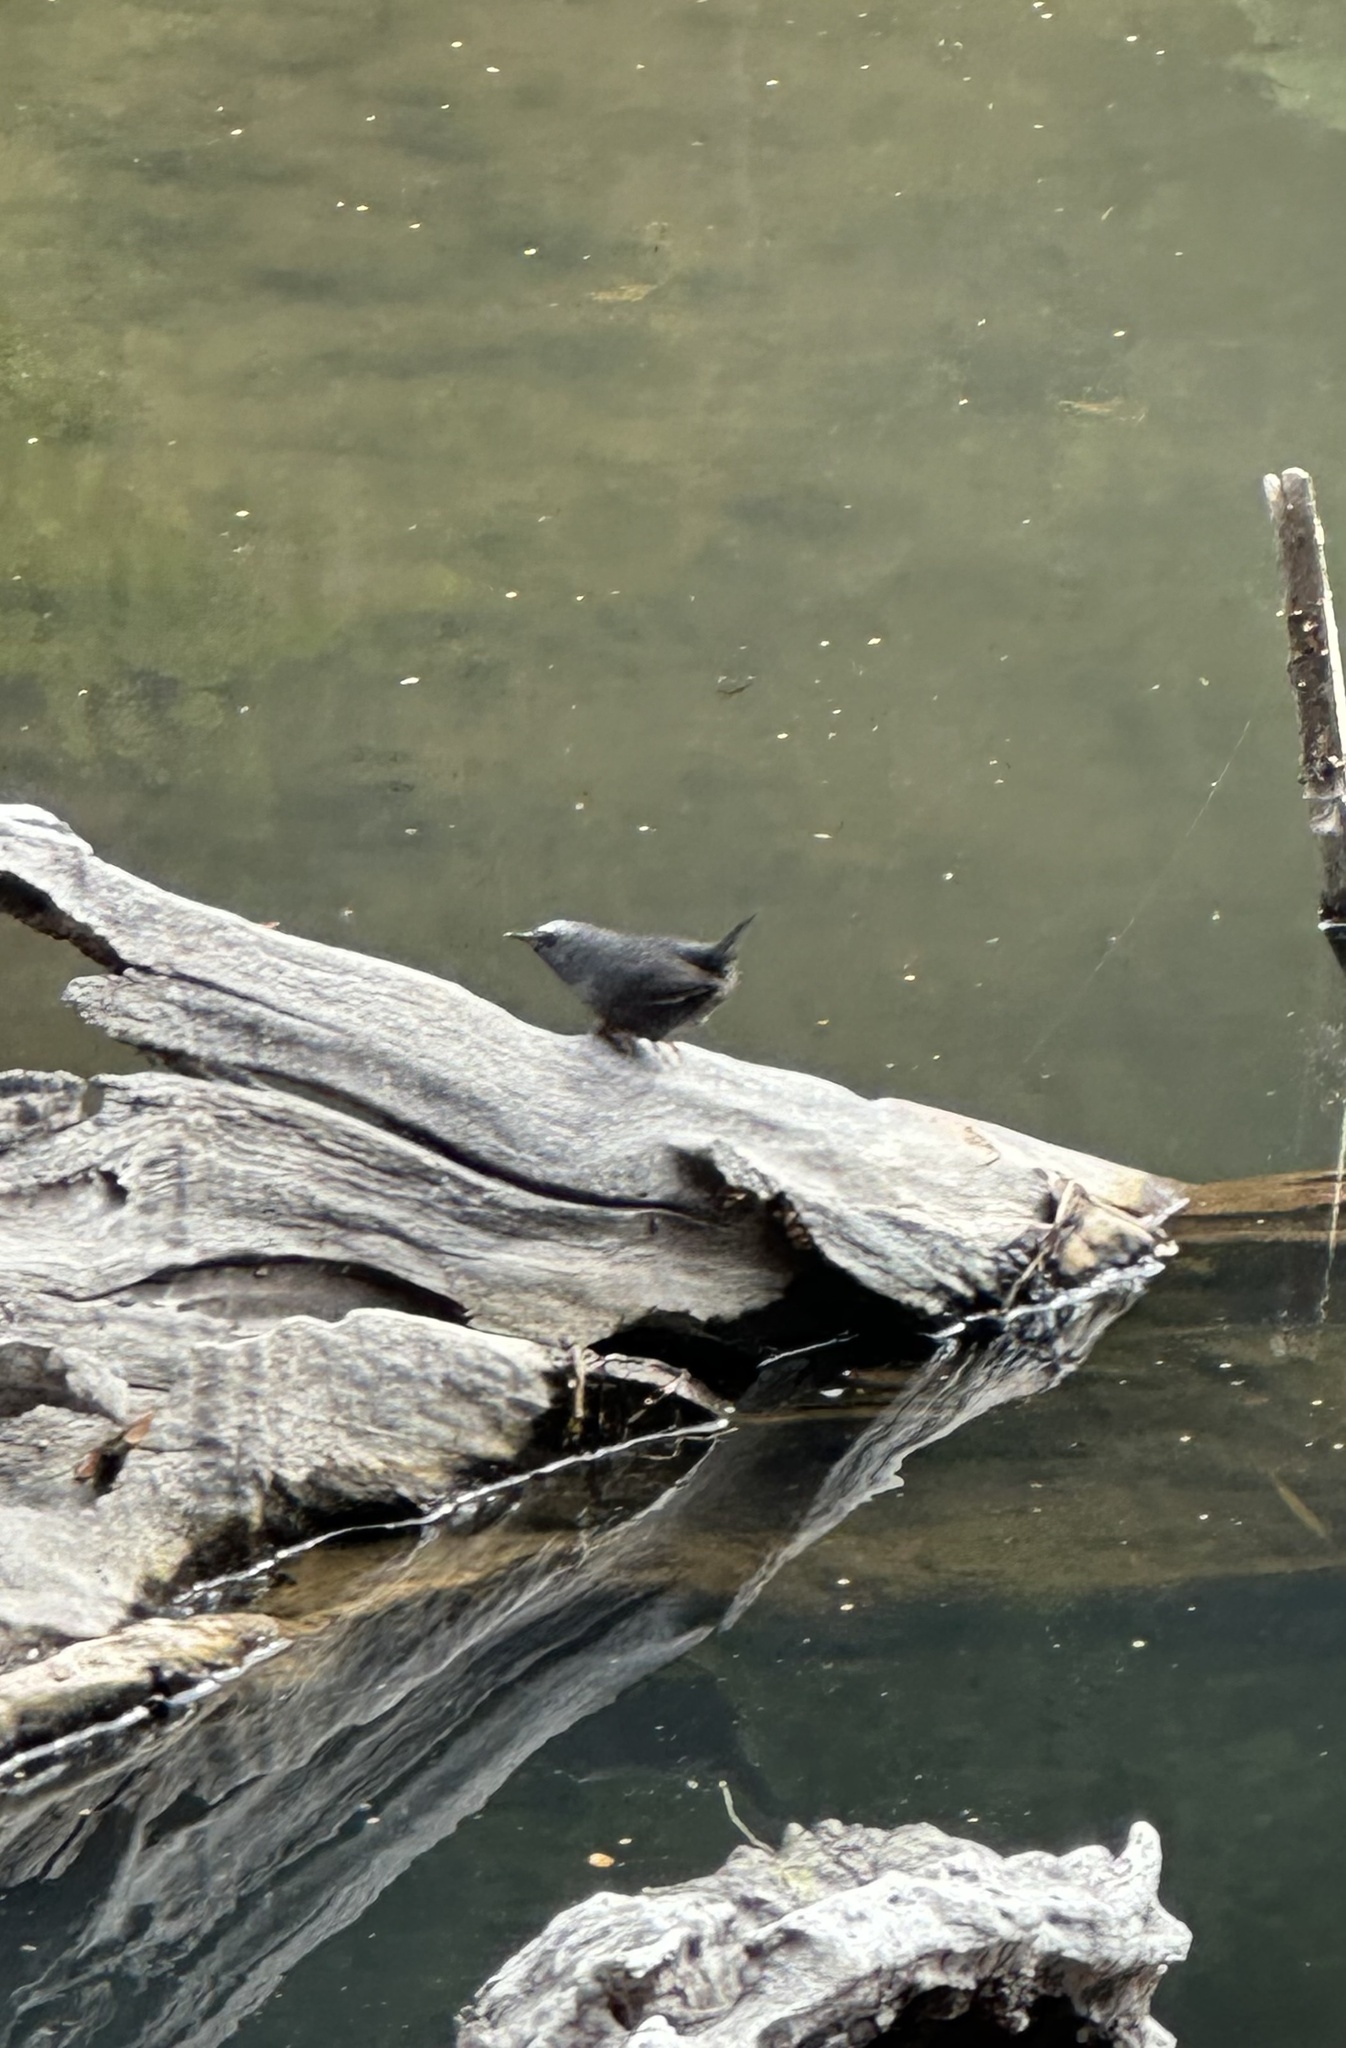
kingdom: Animalia
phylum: Chordata
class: Aves
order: Passeriformes
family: Rhinocryptidae
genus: Scytalopus
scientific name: Scytalopus magellanicus
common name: Magellanic tapaculo
